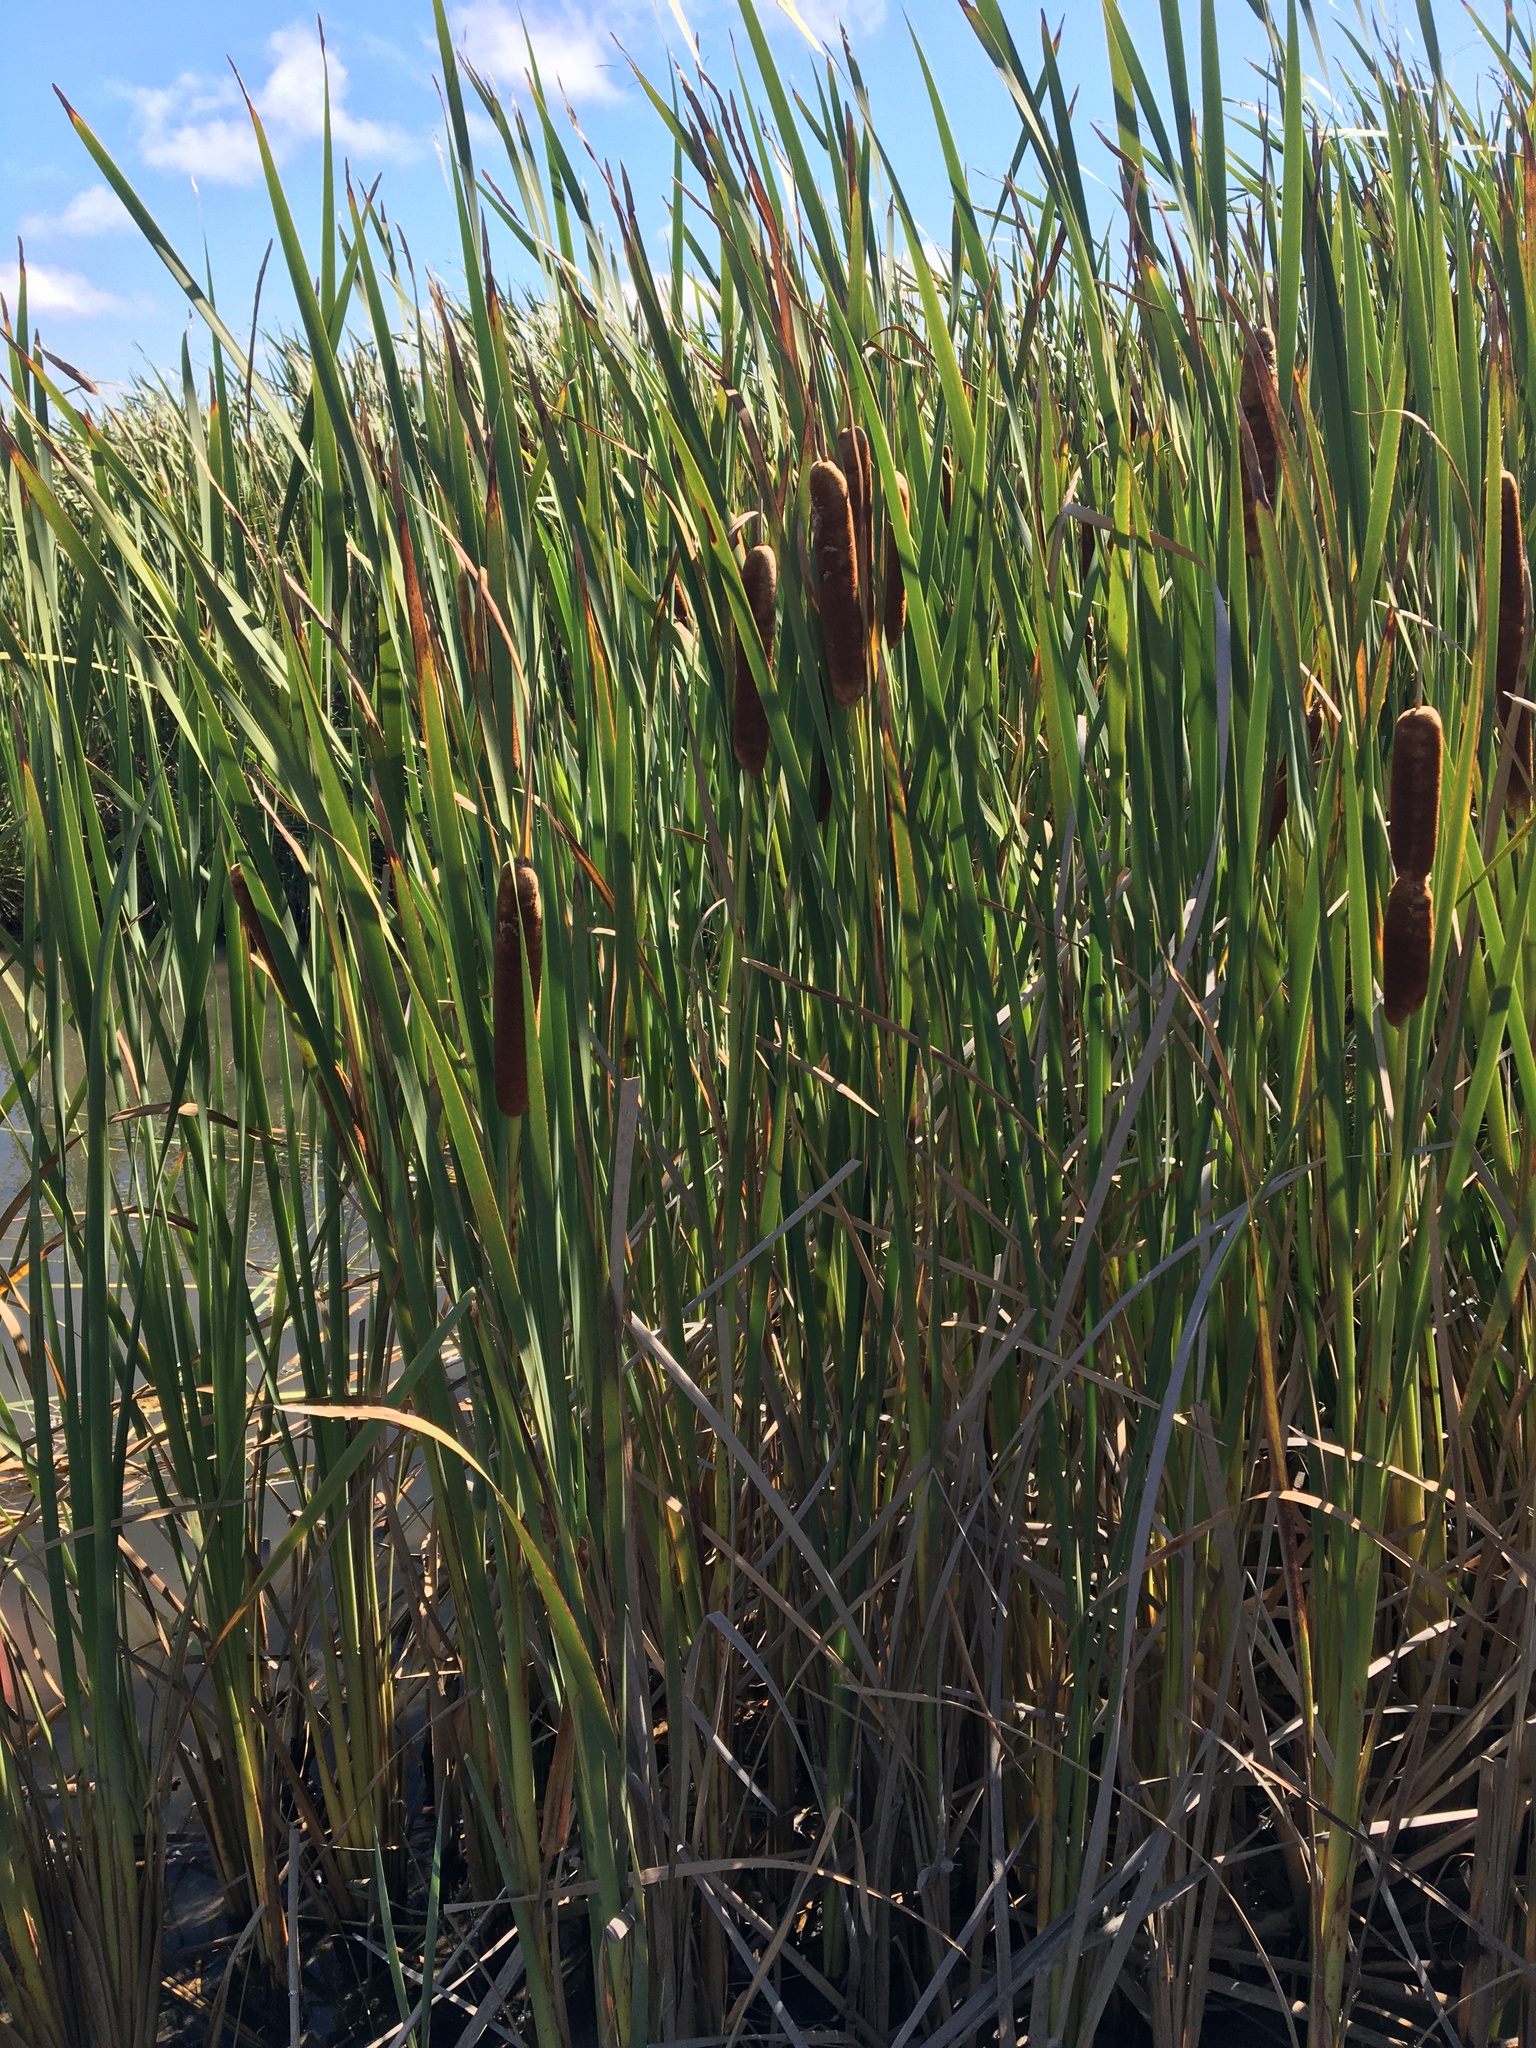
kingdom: Plantae
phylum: Tracheophyta
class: Liliopsida
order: Poales
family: Typhaceae
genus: Typha
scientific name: Typha orientalis
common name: Bullrush
